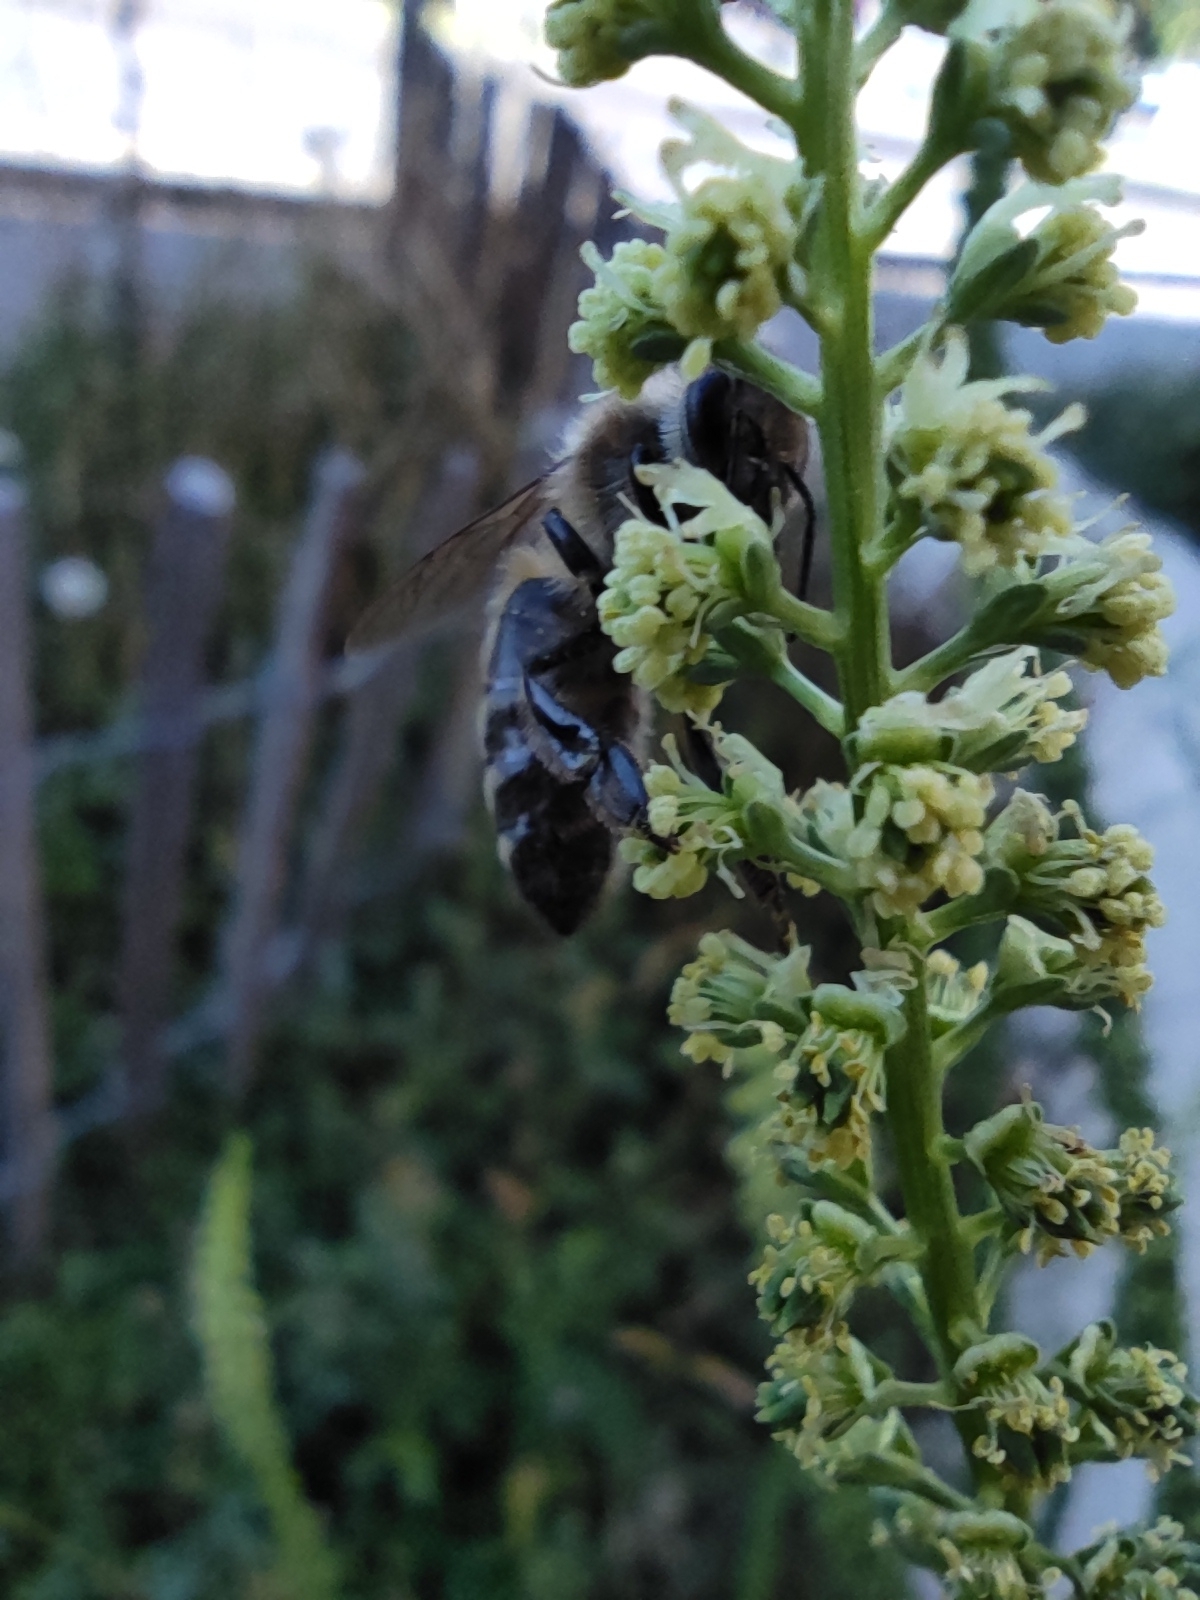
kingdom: Animalia
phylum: Arthropoda
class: Insecta
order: Hymenoptera
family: Apidae
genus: Apis
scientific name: Apis mellifera
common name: Honey bee
